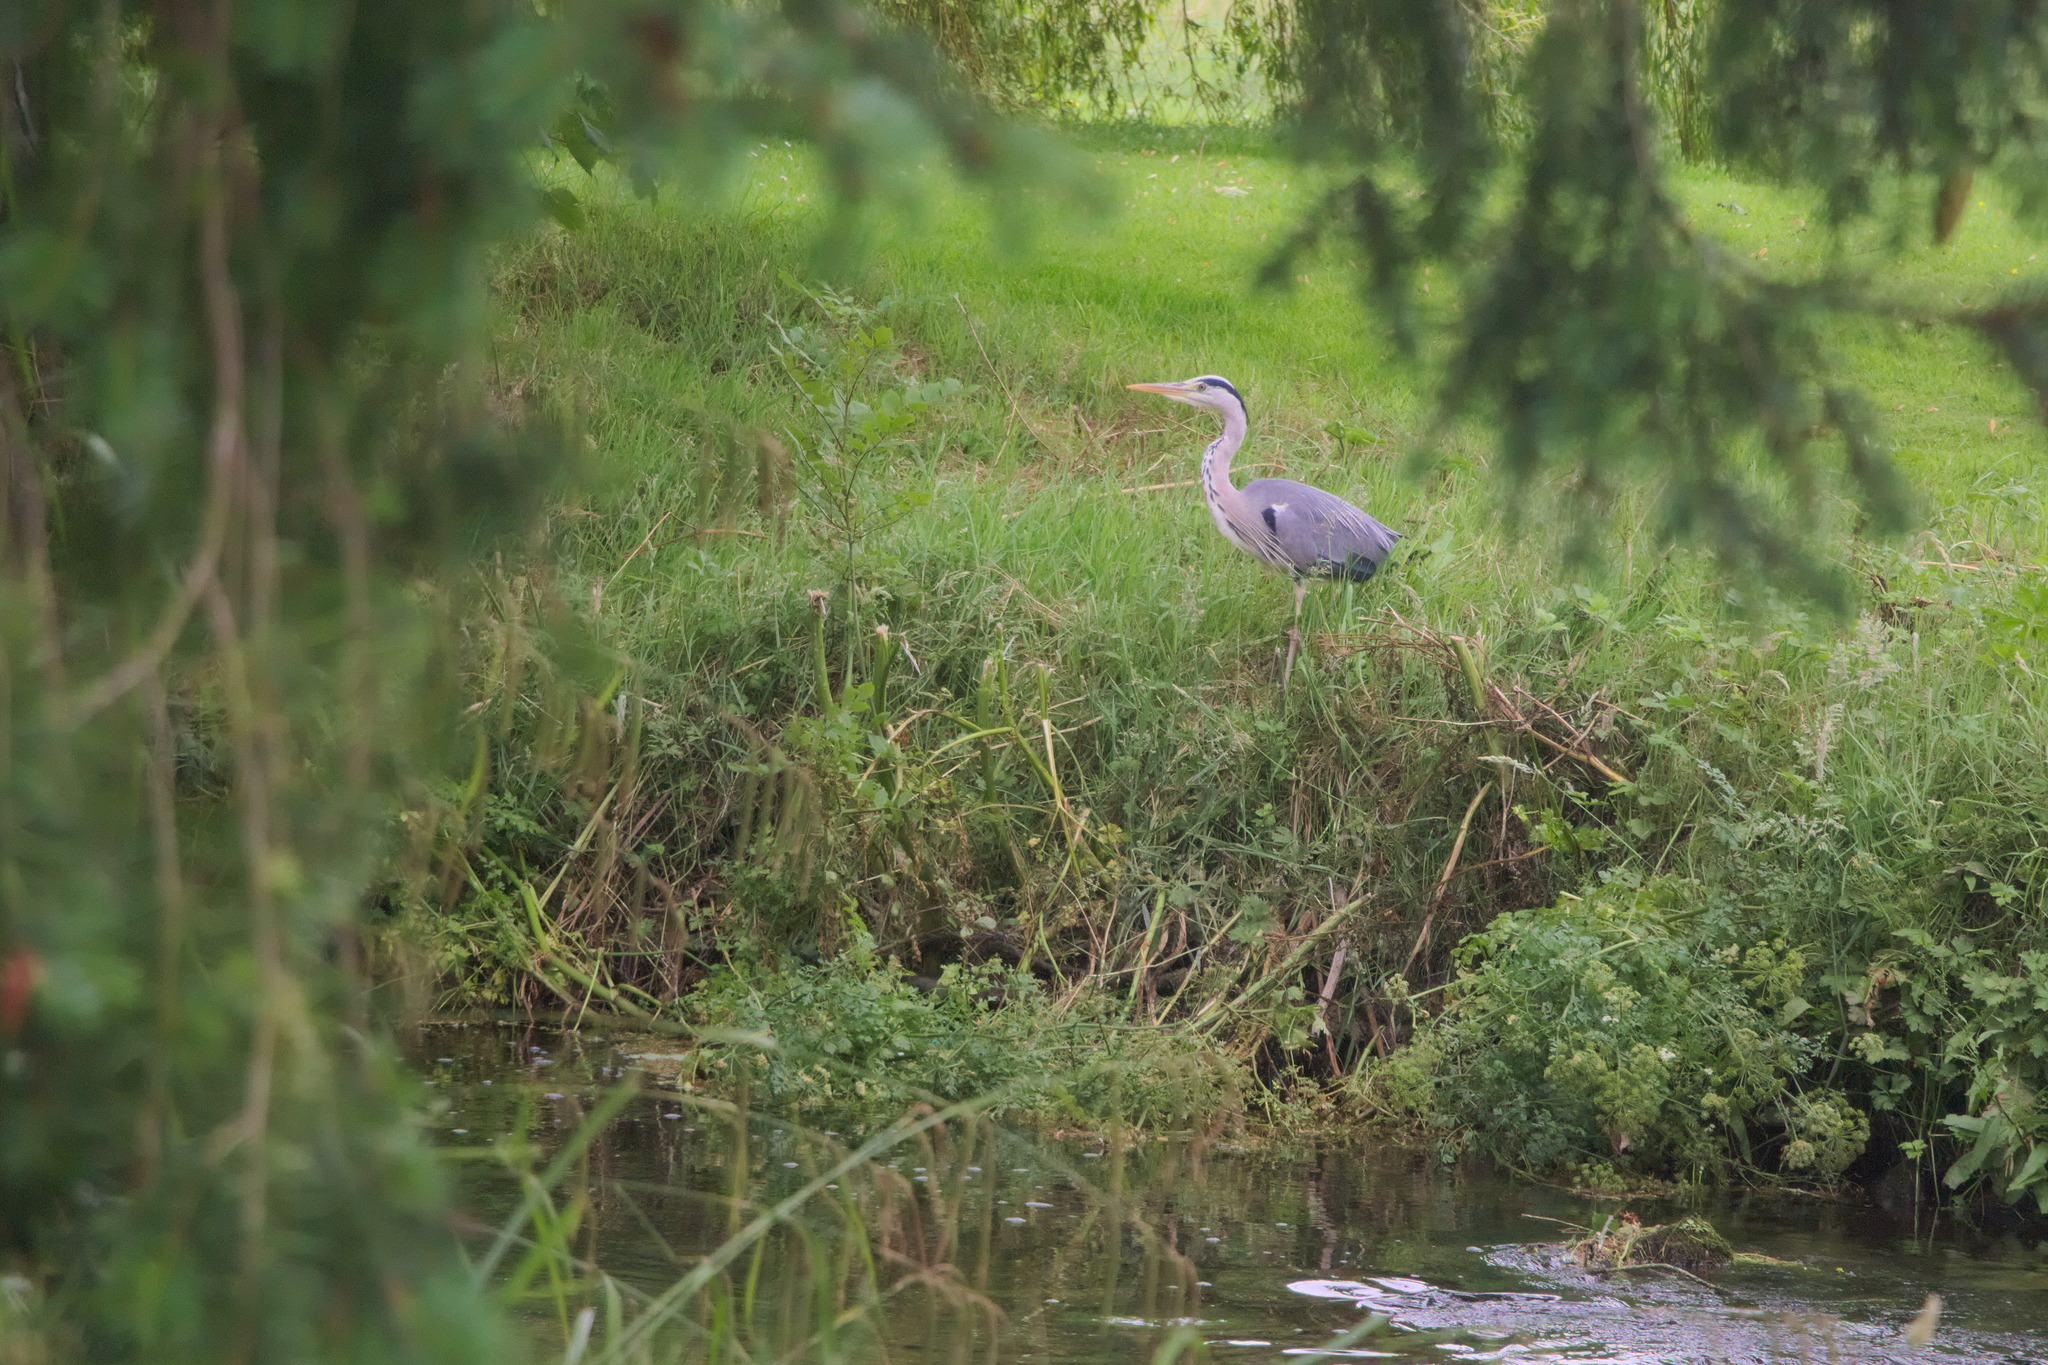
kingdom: Animalia
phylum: Chordata
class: Aves
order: Pelecaniformes
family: Ardeidae
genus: Ardea
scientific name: Ardea cinerea
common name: Grey heron
